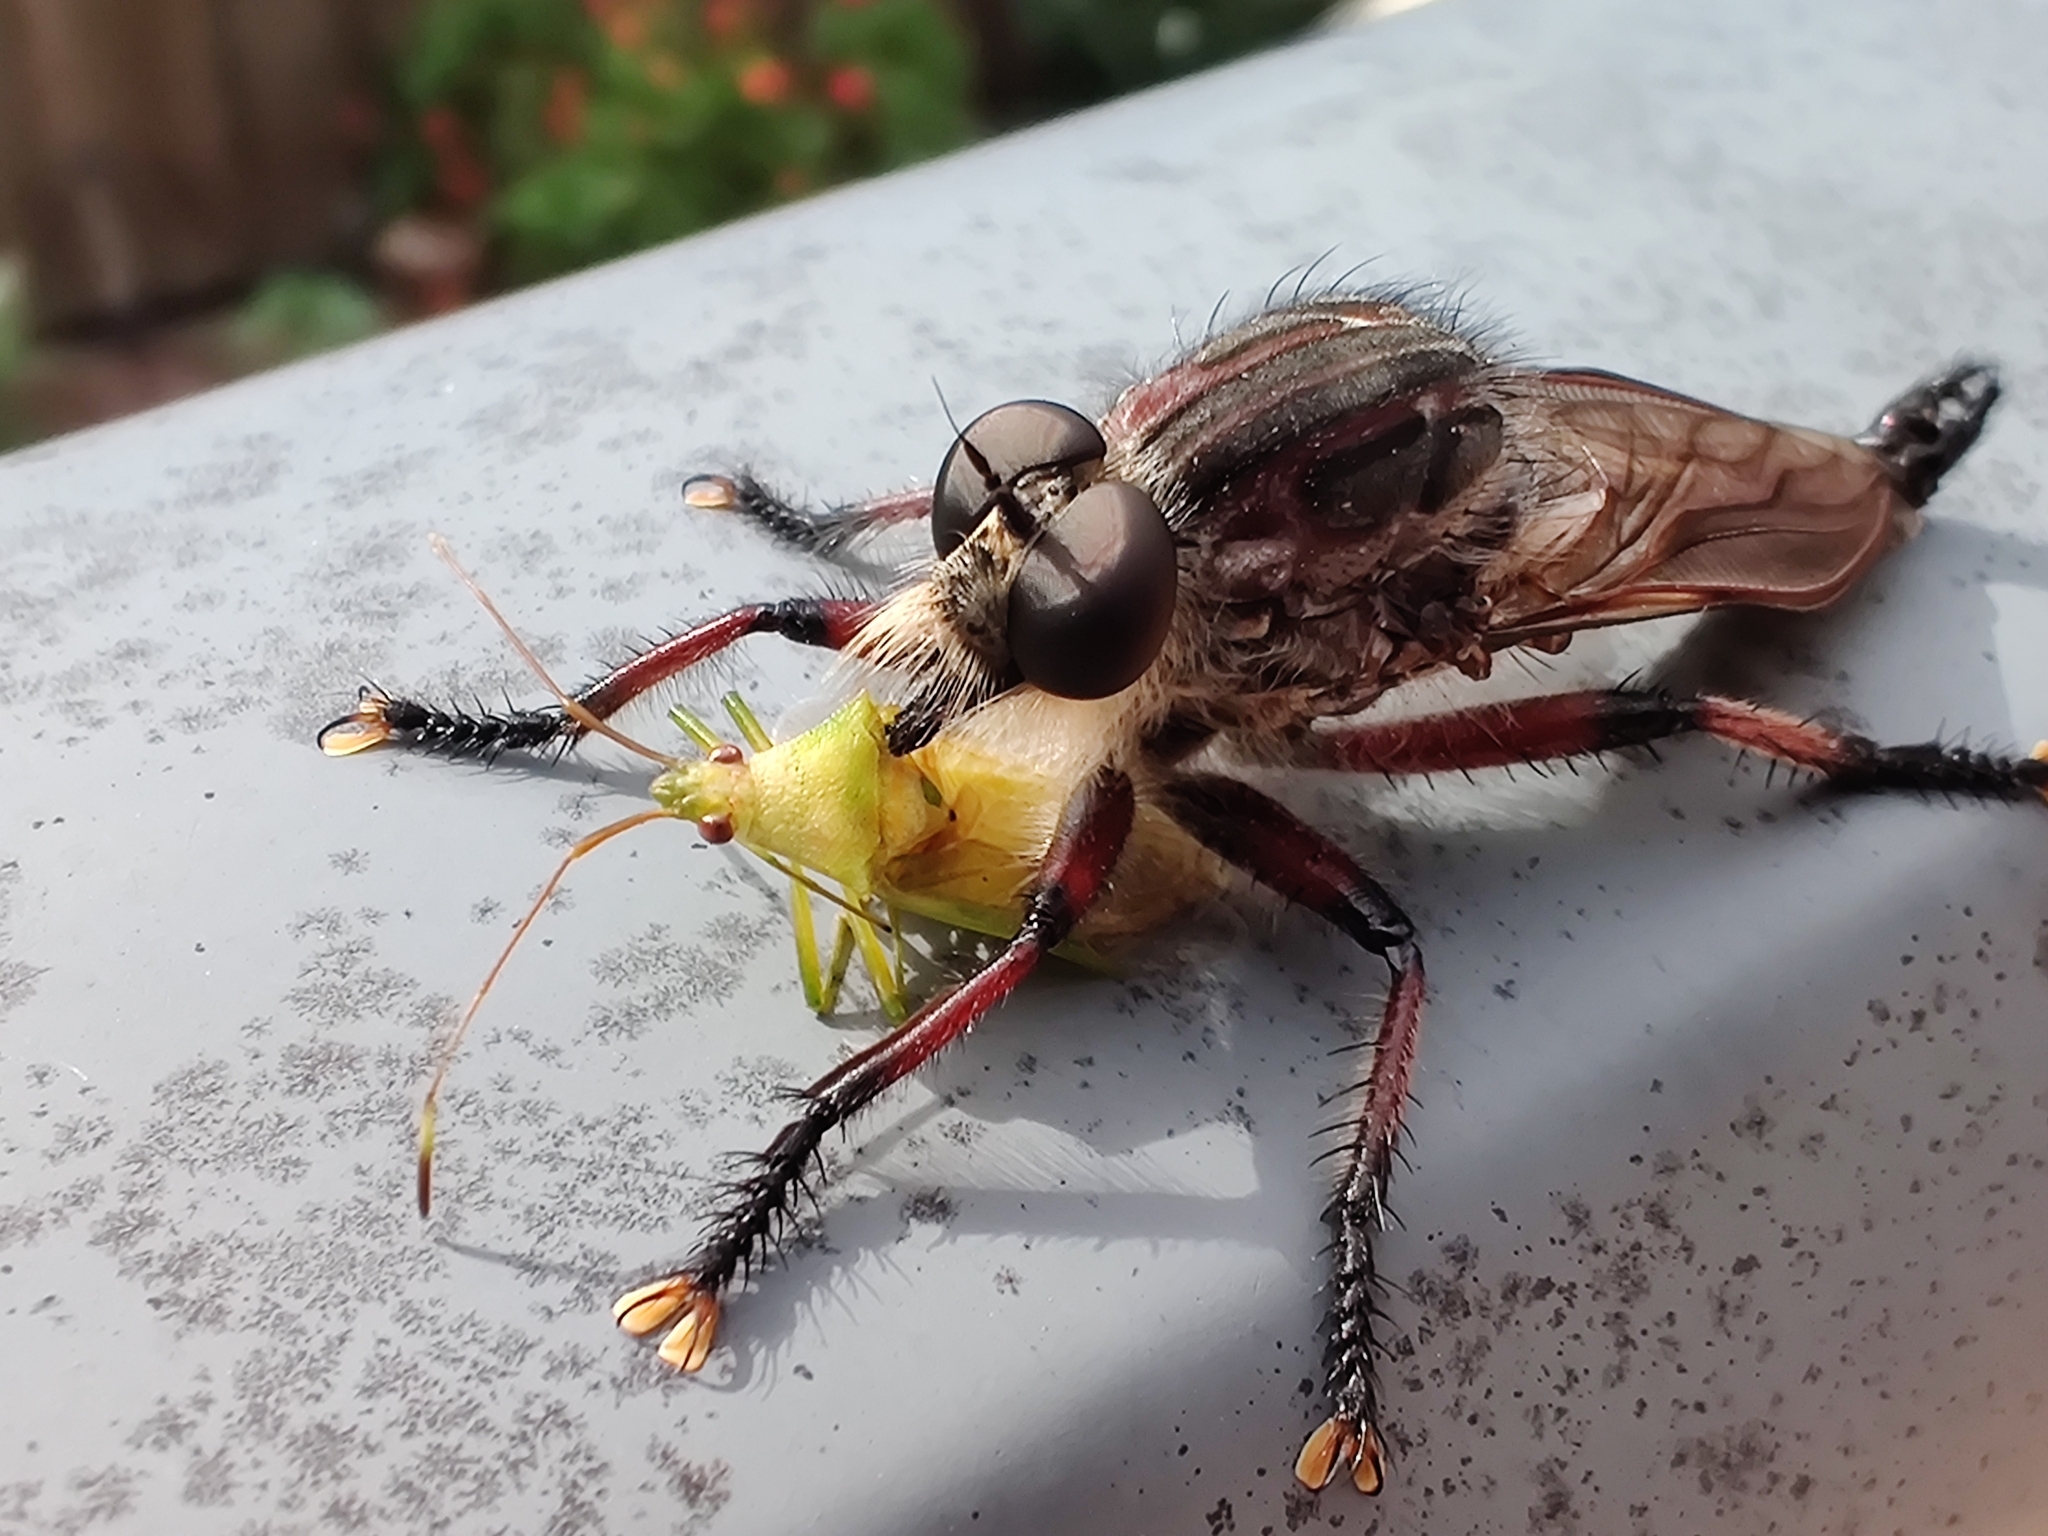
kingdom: Animalia
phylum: Arthropoda
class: Insecta
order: Diptera
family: Asilidae
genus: Neoaratus
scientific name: Neoaratus hercules
